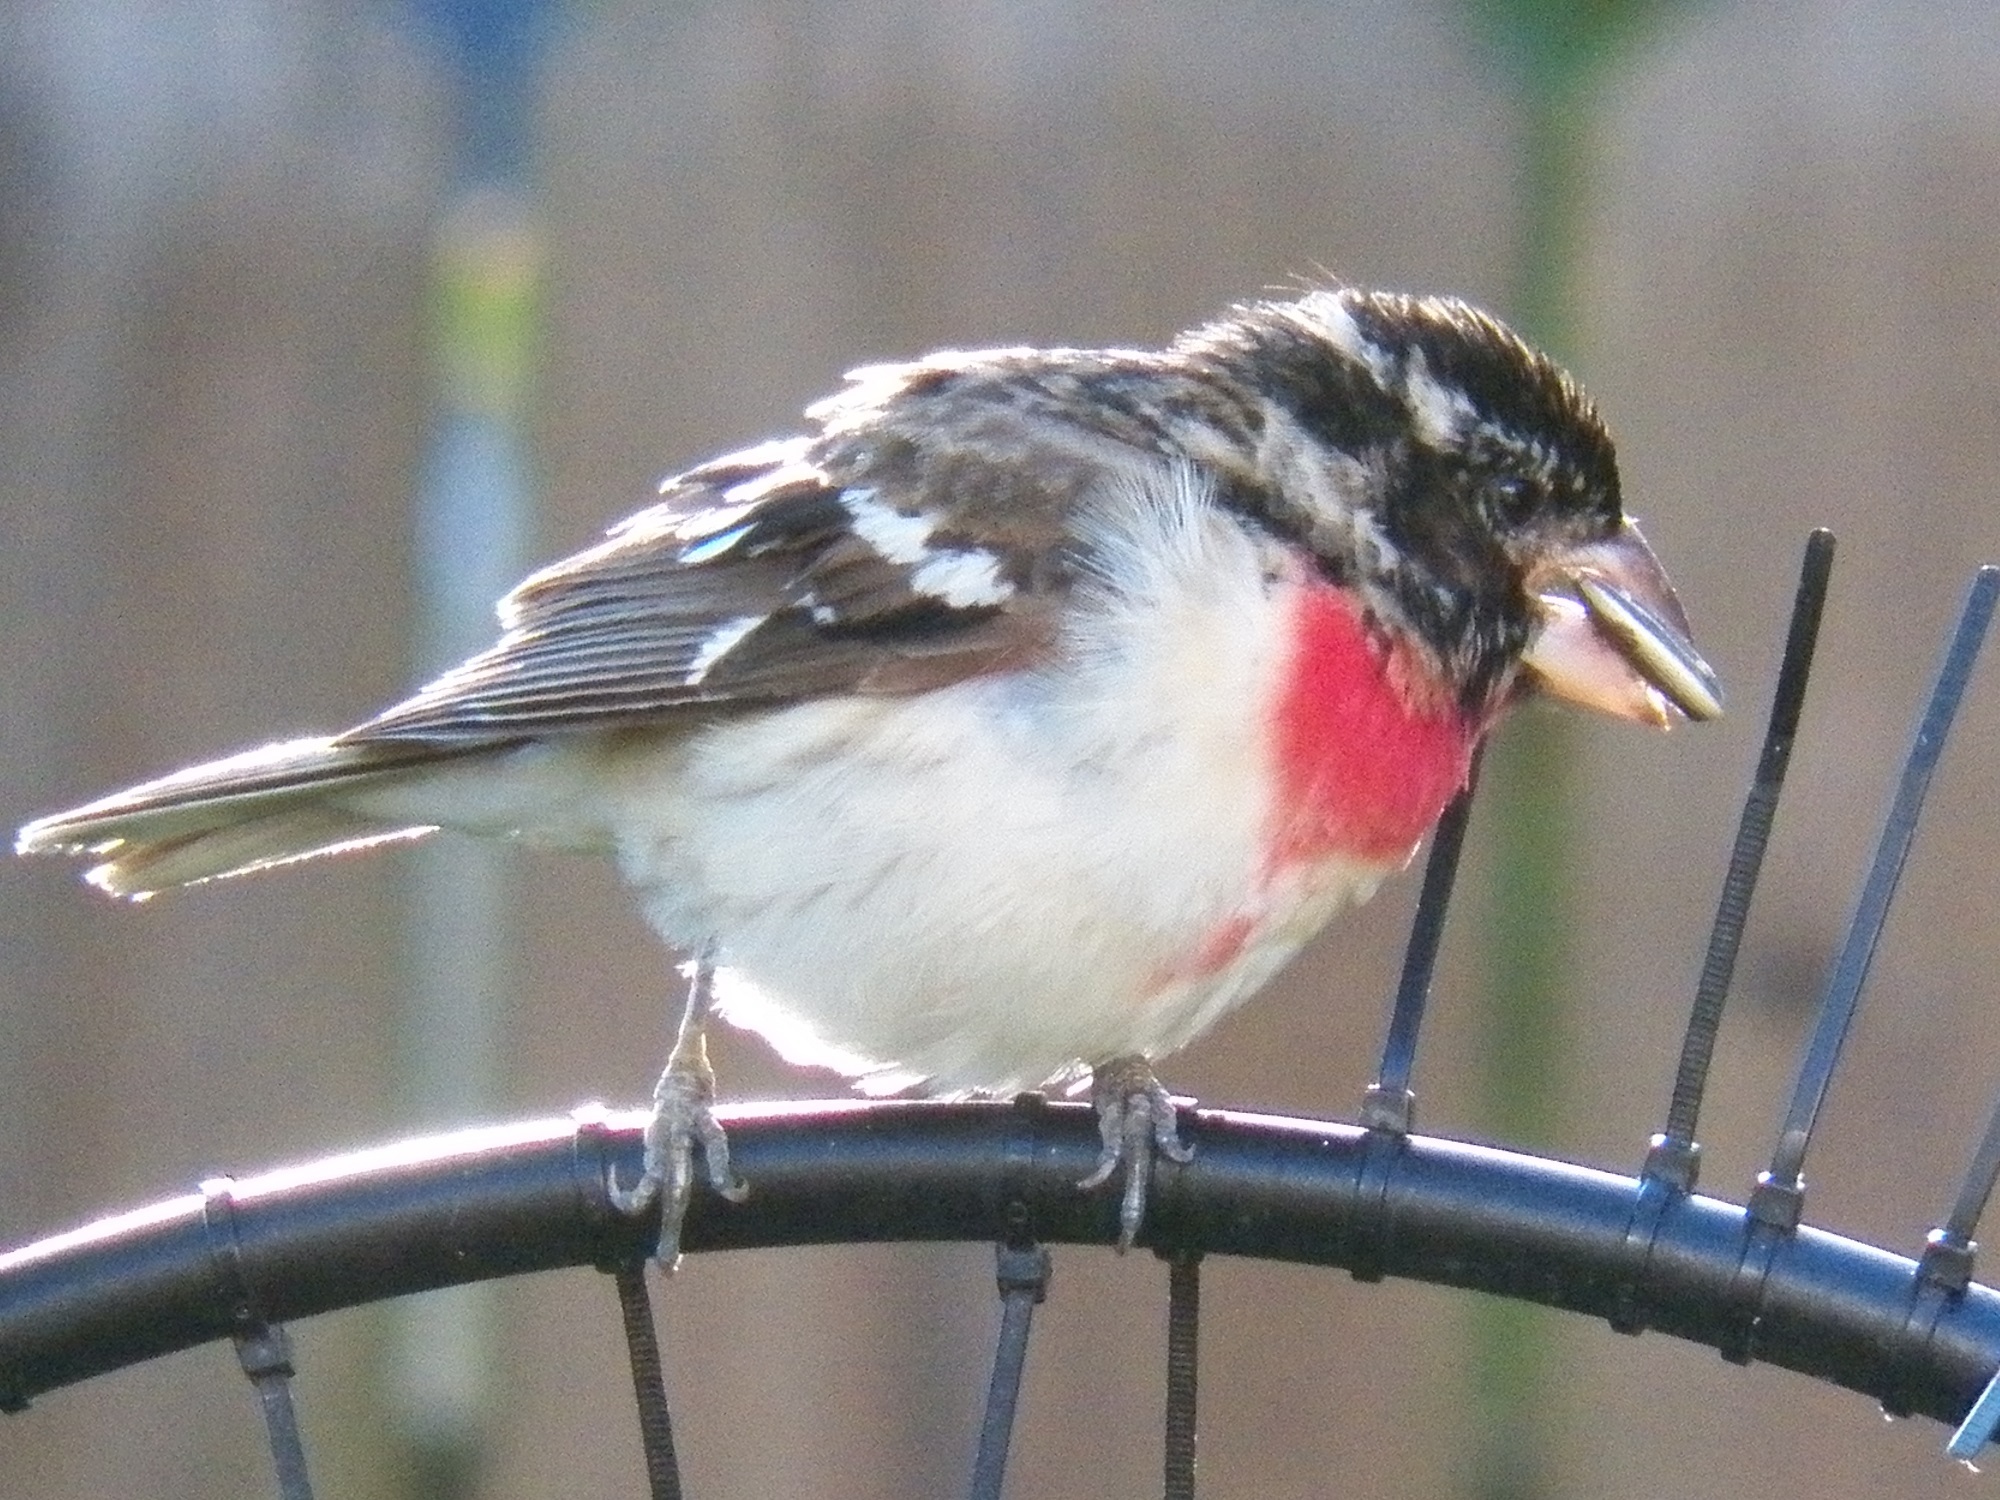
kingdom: Animalia
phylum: Chordata
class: Aves
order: Passeriformes
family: Cardinalidae
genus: Pheucticus
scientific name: Pheucticus ludovicianus
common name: Rose-breasted grosbeak
